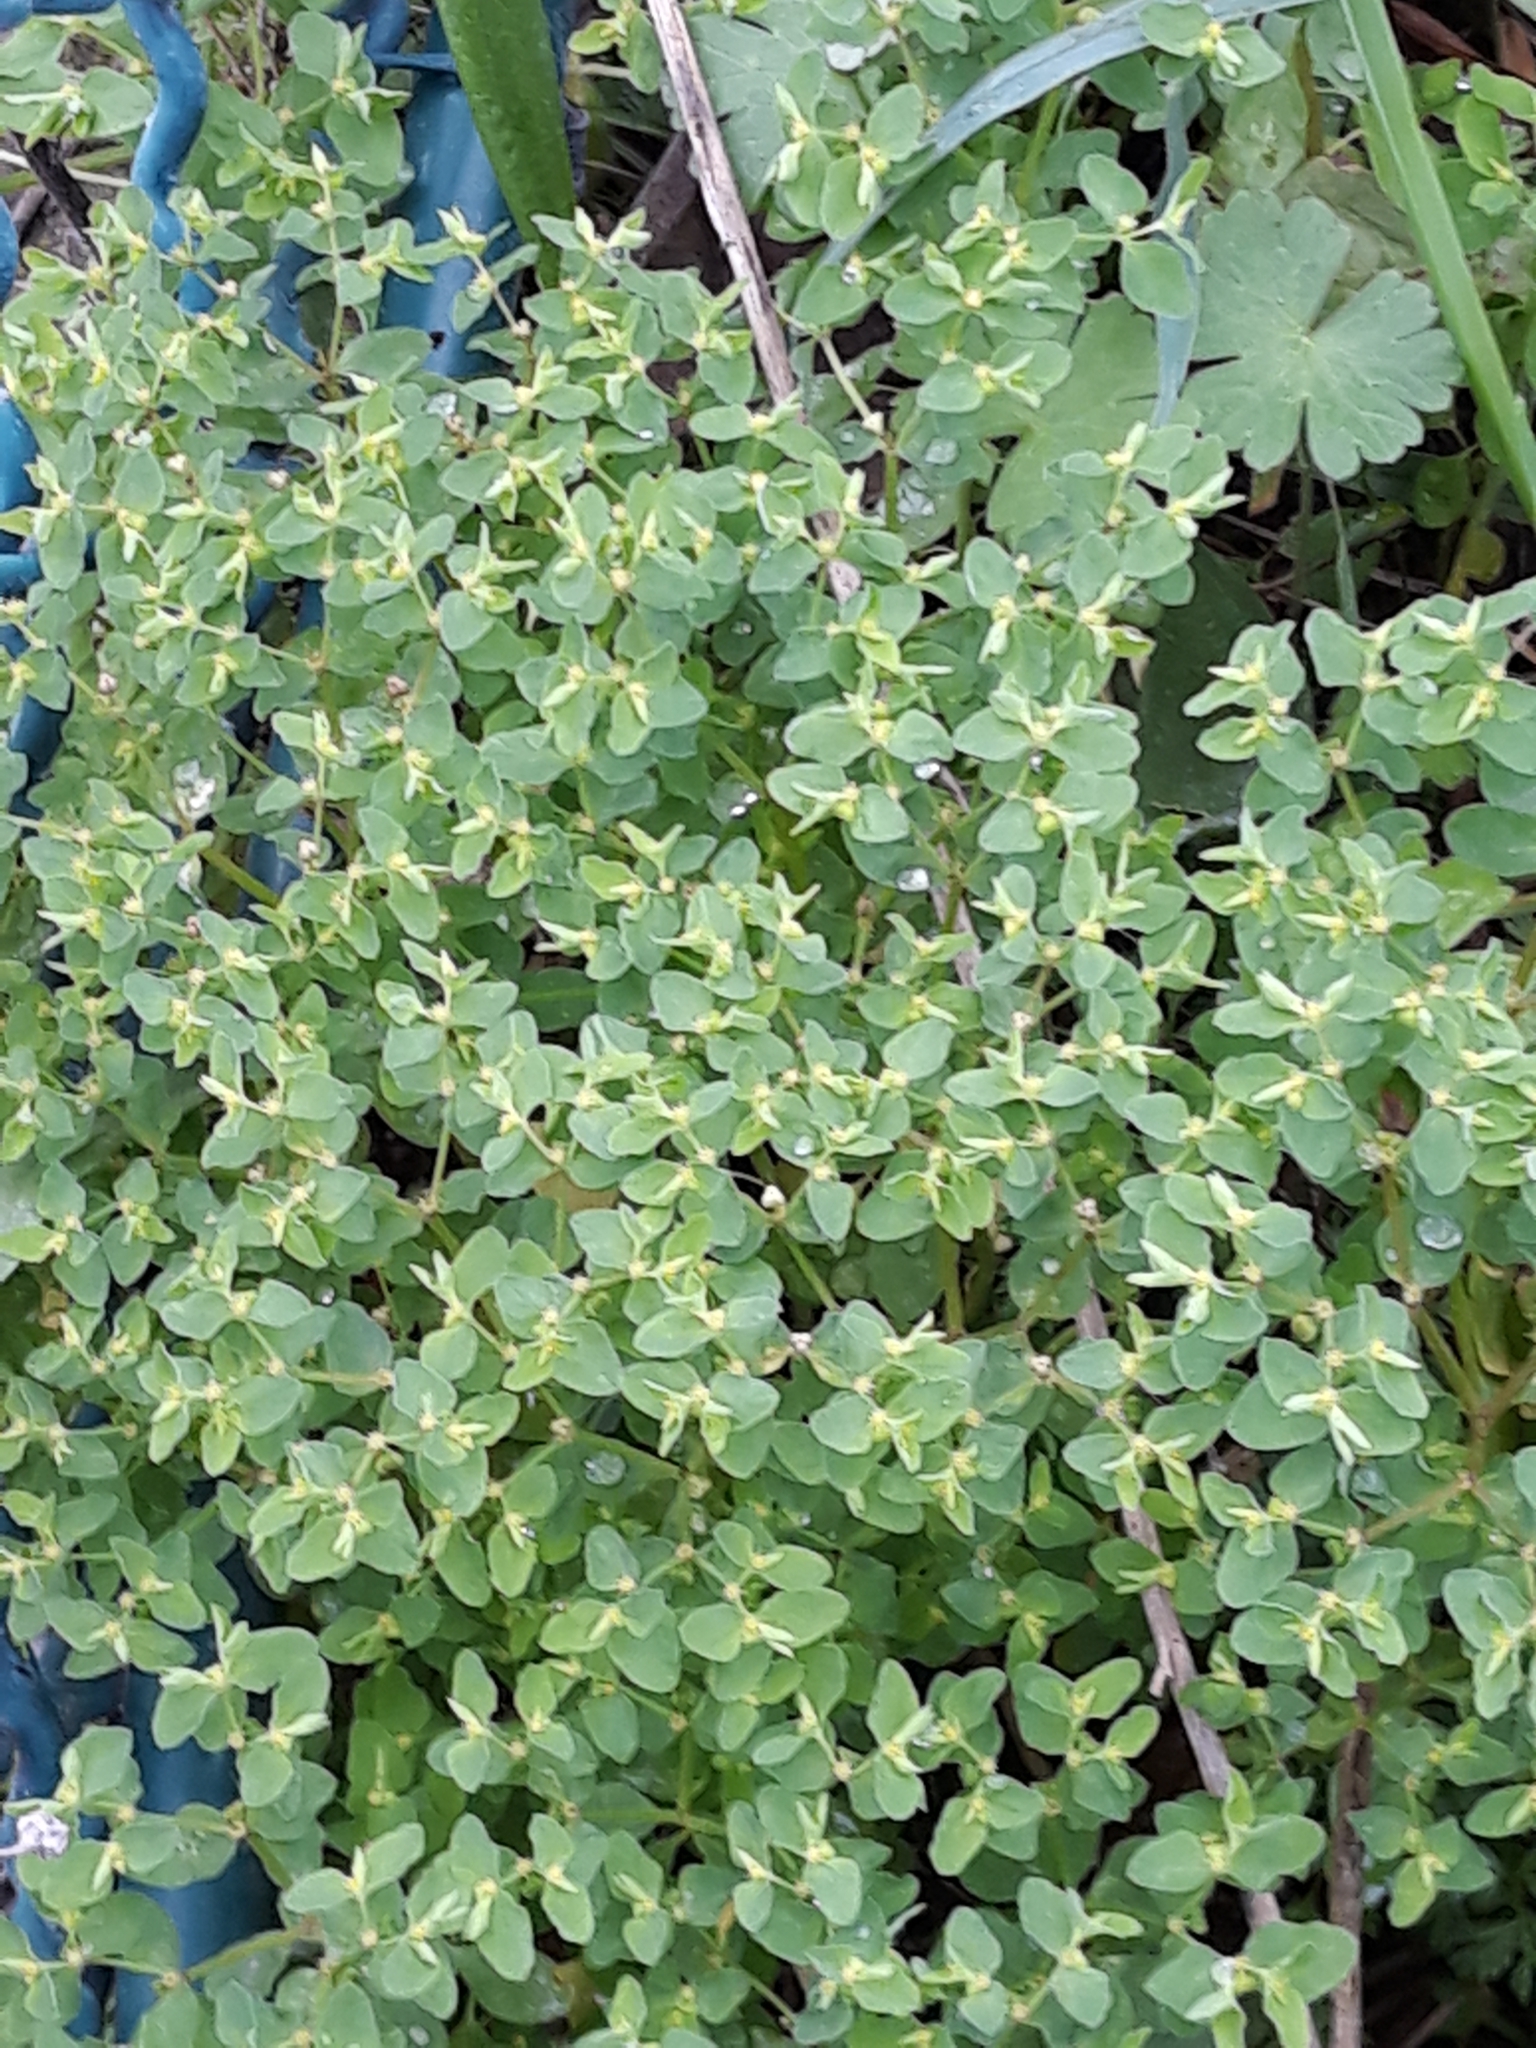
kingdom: Plantae
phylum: Tracheophyta
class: Magnoliopsida
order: Malpighiales
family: Euphorbiaceae
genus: Euphorbia
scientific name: Euphorbia peplus
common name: Petty spurge
